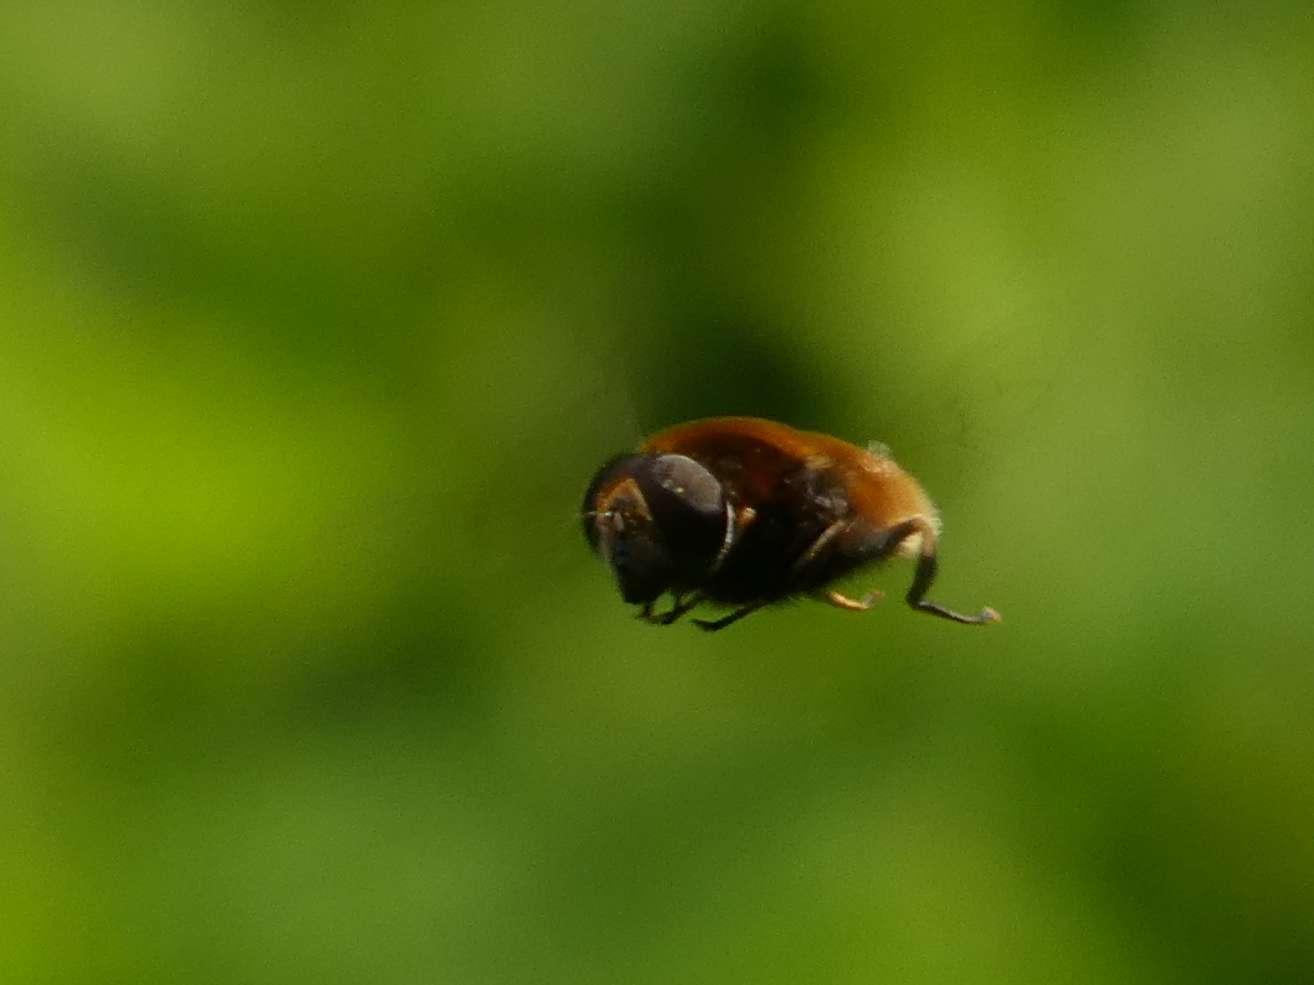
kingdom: Animalia
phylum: Arthropoda
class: Insecta
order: Diptera
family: Syrphidae
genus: Eristalis
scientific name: Eristalis intricaria
